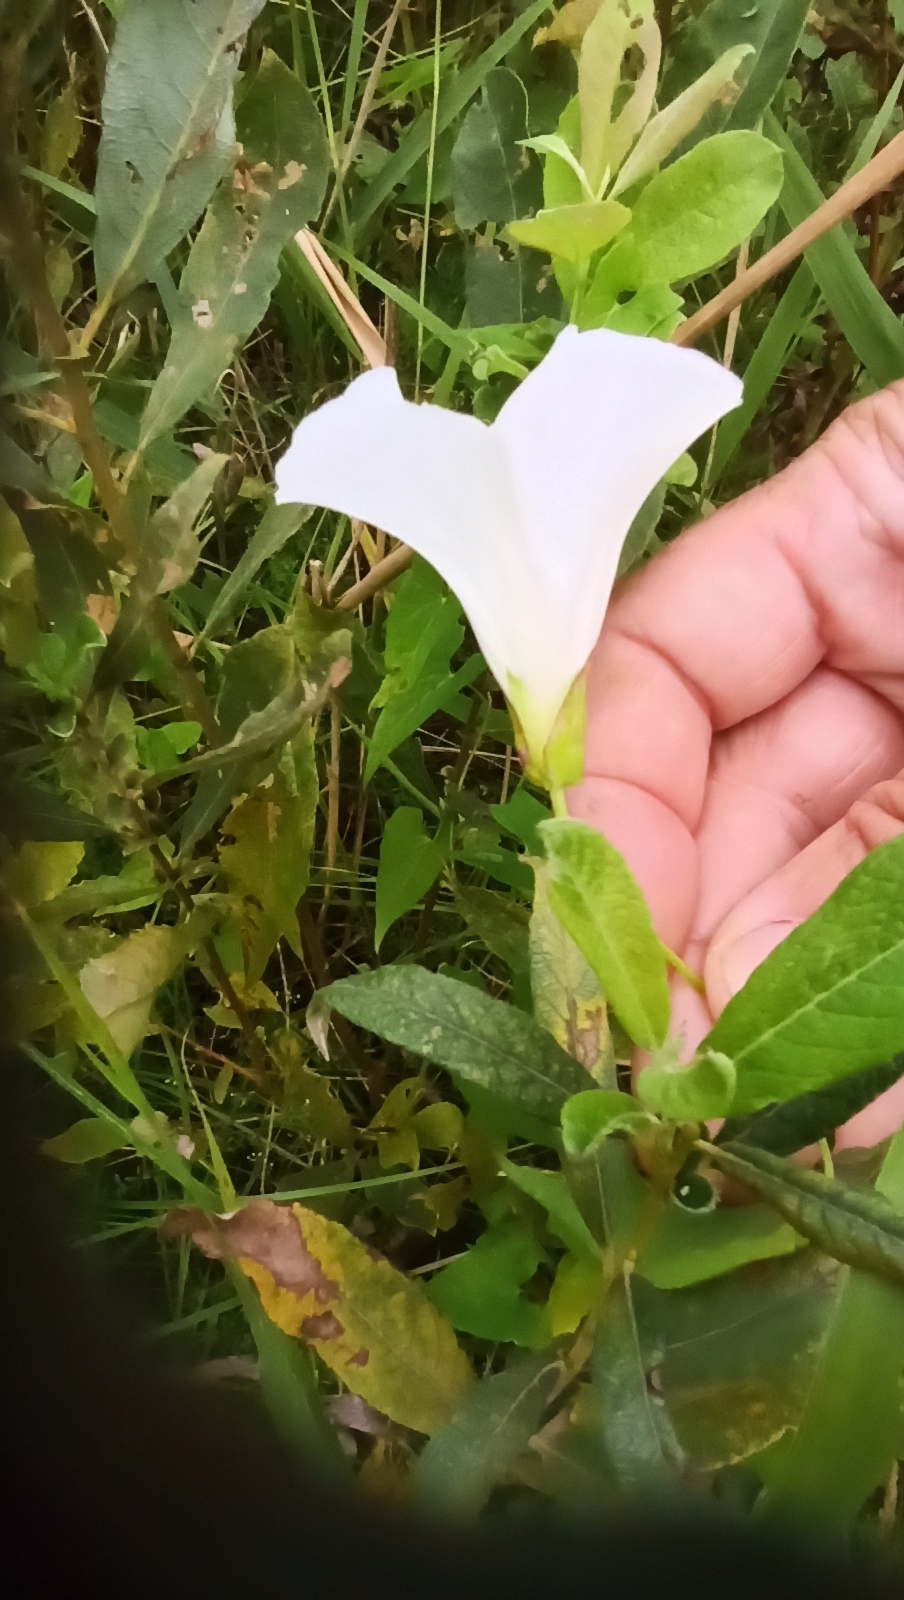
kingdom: Plantae
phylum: Tracheophyta
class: Magnoliopsida
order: Solanales
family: Convolvulaceae
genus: Calystegia
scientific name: Calystegia sepium
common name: Hedge bindweed
